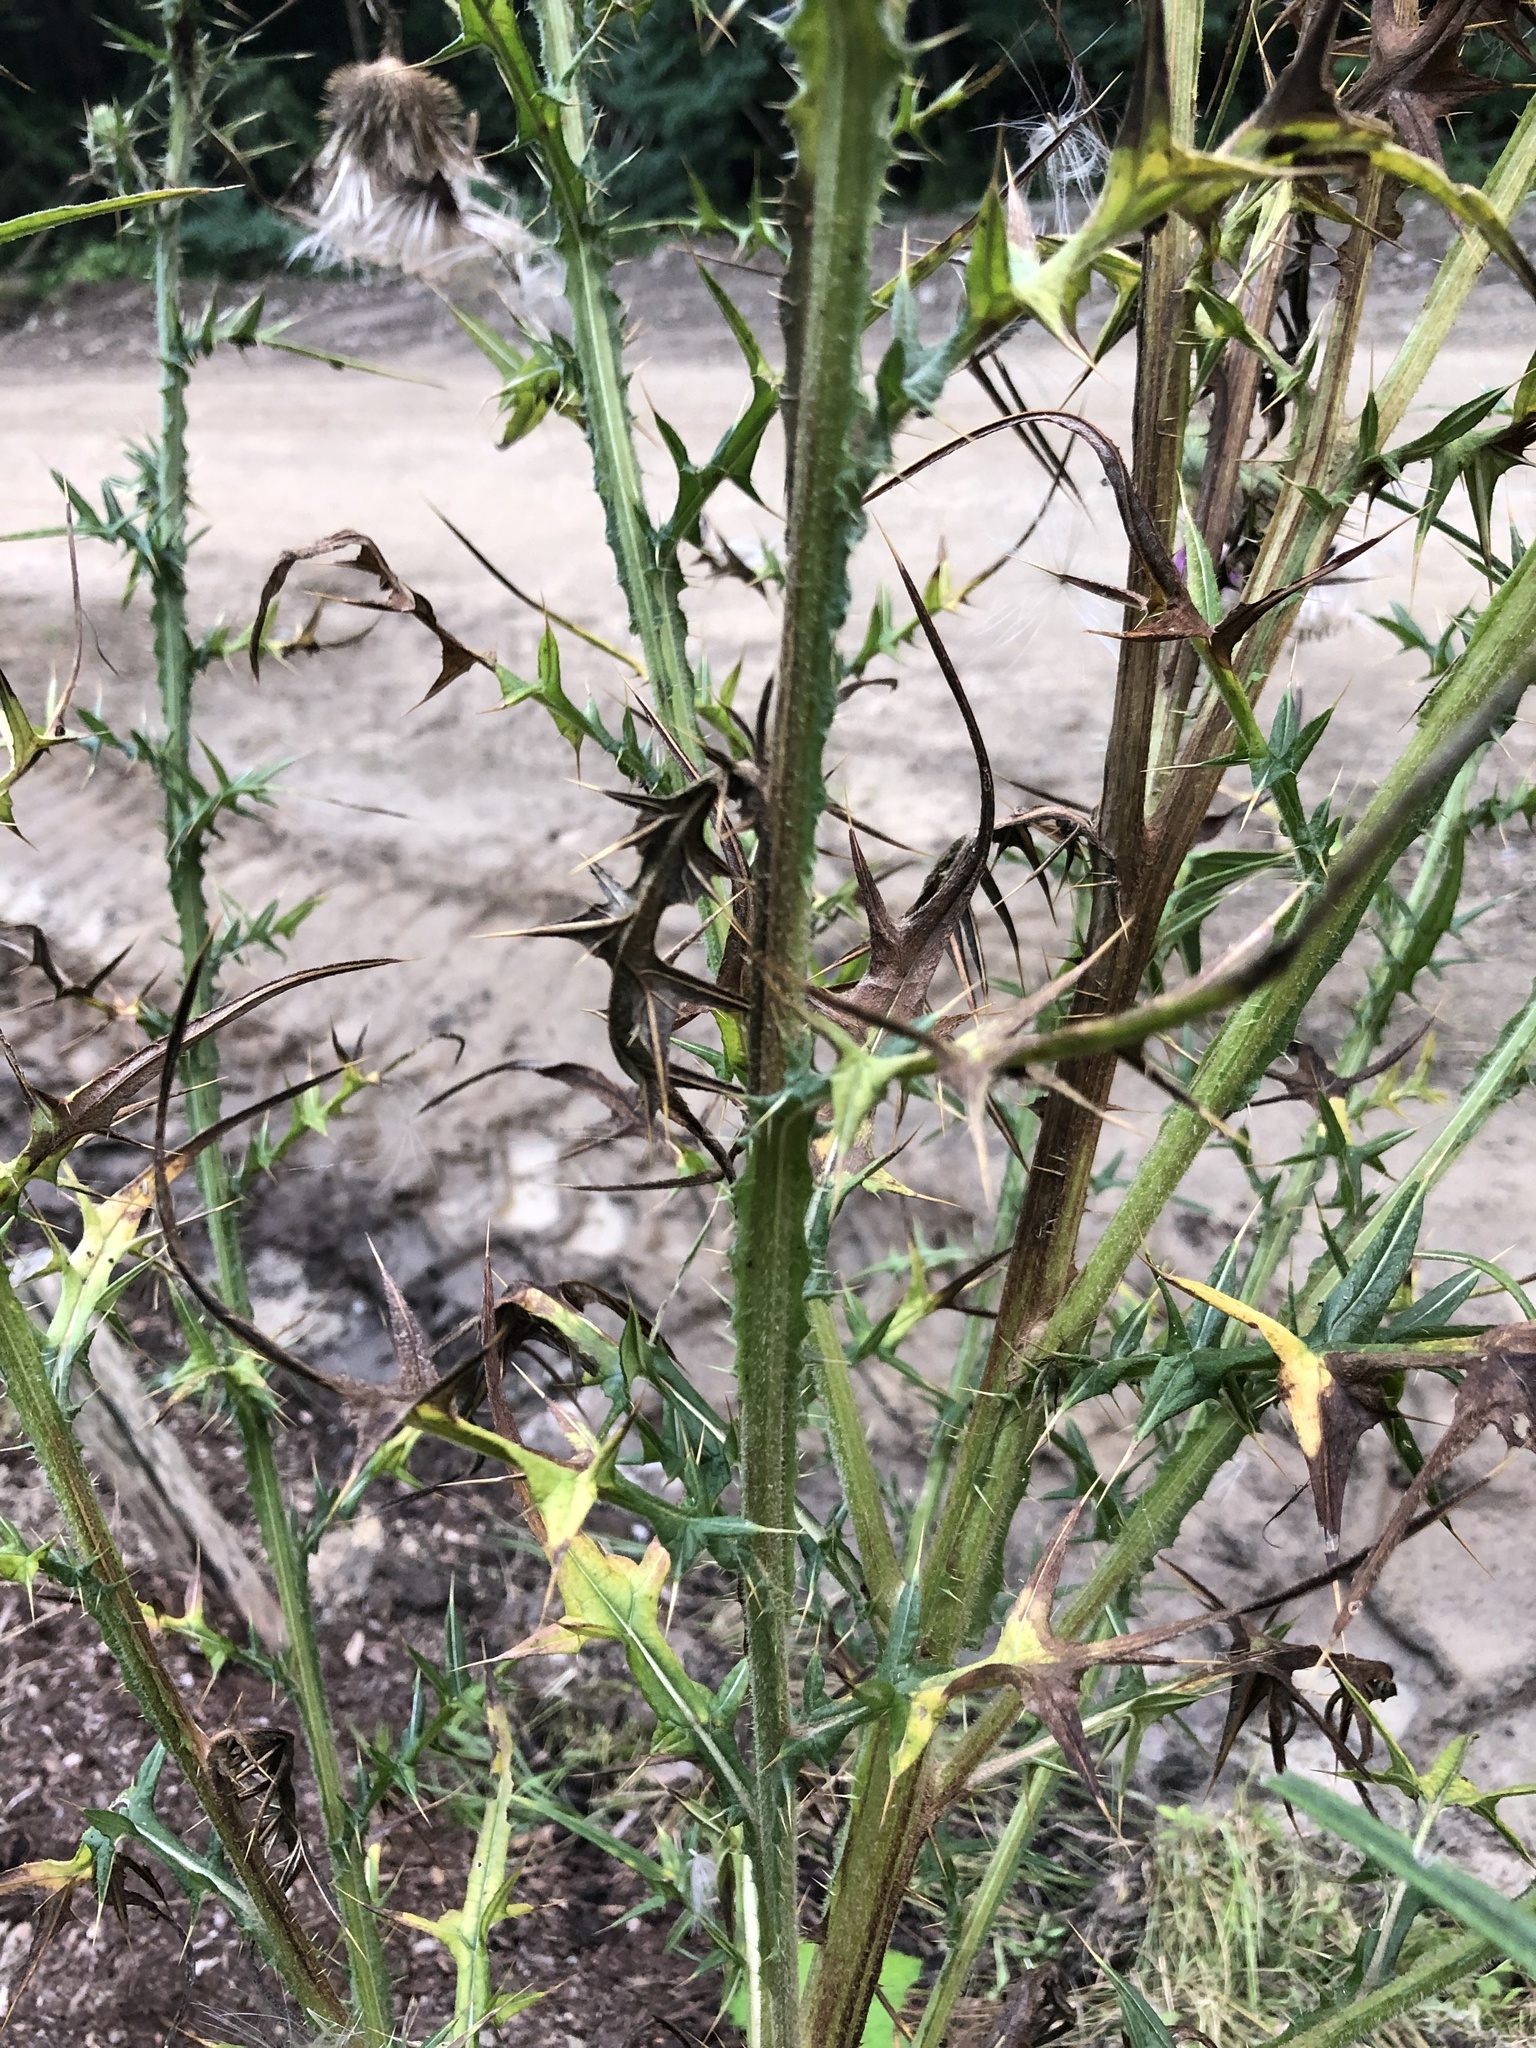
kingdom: Plantae
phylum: Tracheophyta
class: Magnoliopsida
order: Asterales
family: Asteraceae
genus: Cirsium
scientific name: Cirsium vulgare
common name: Bull thistle
